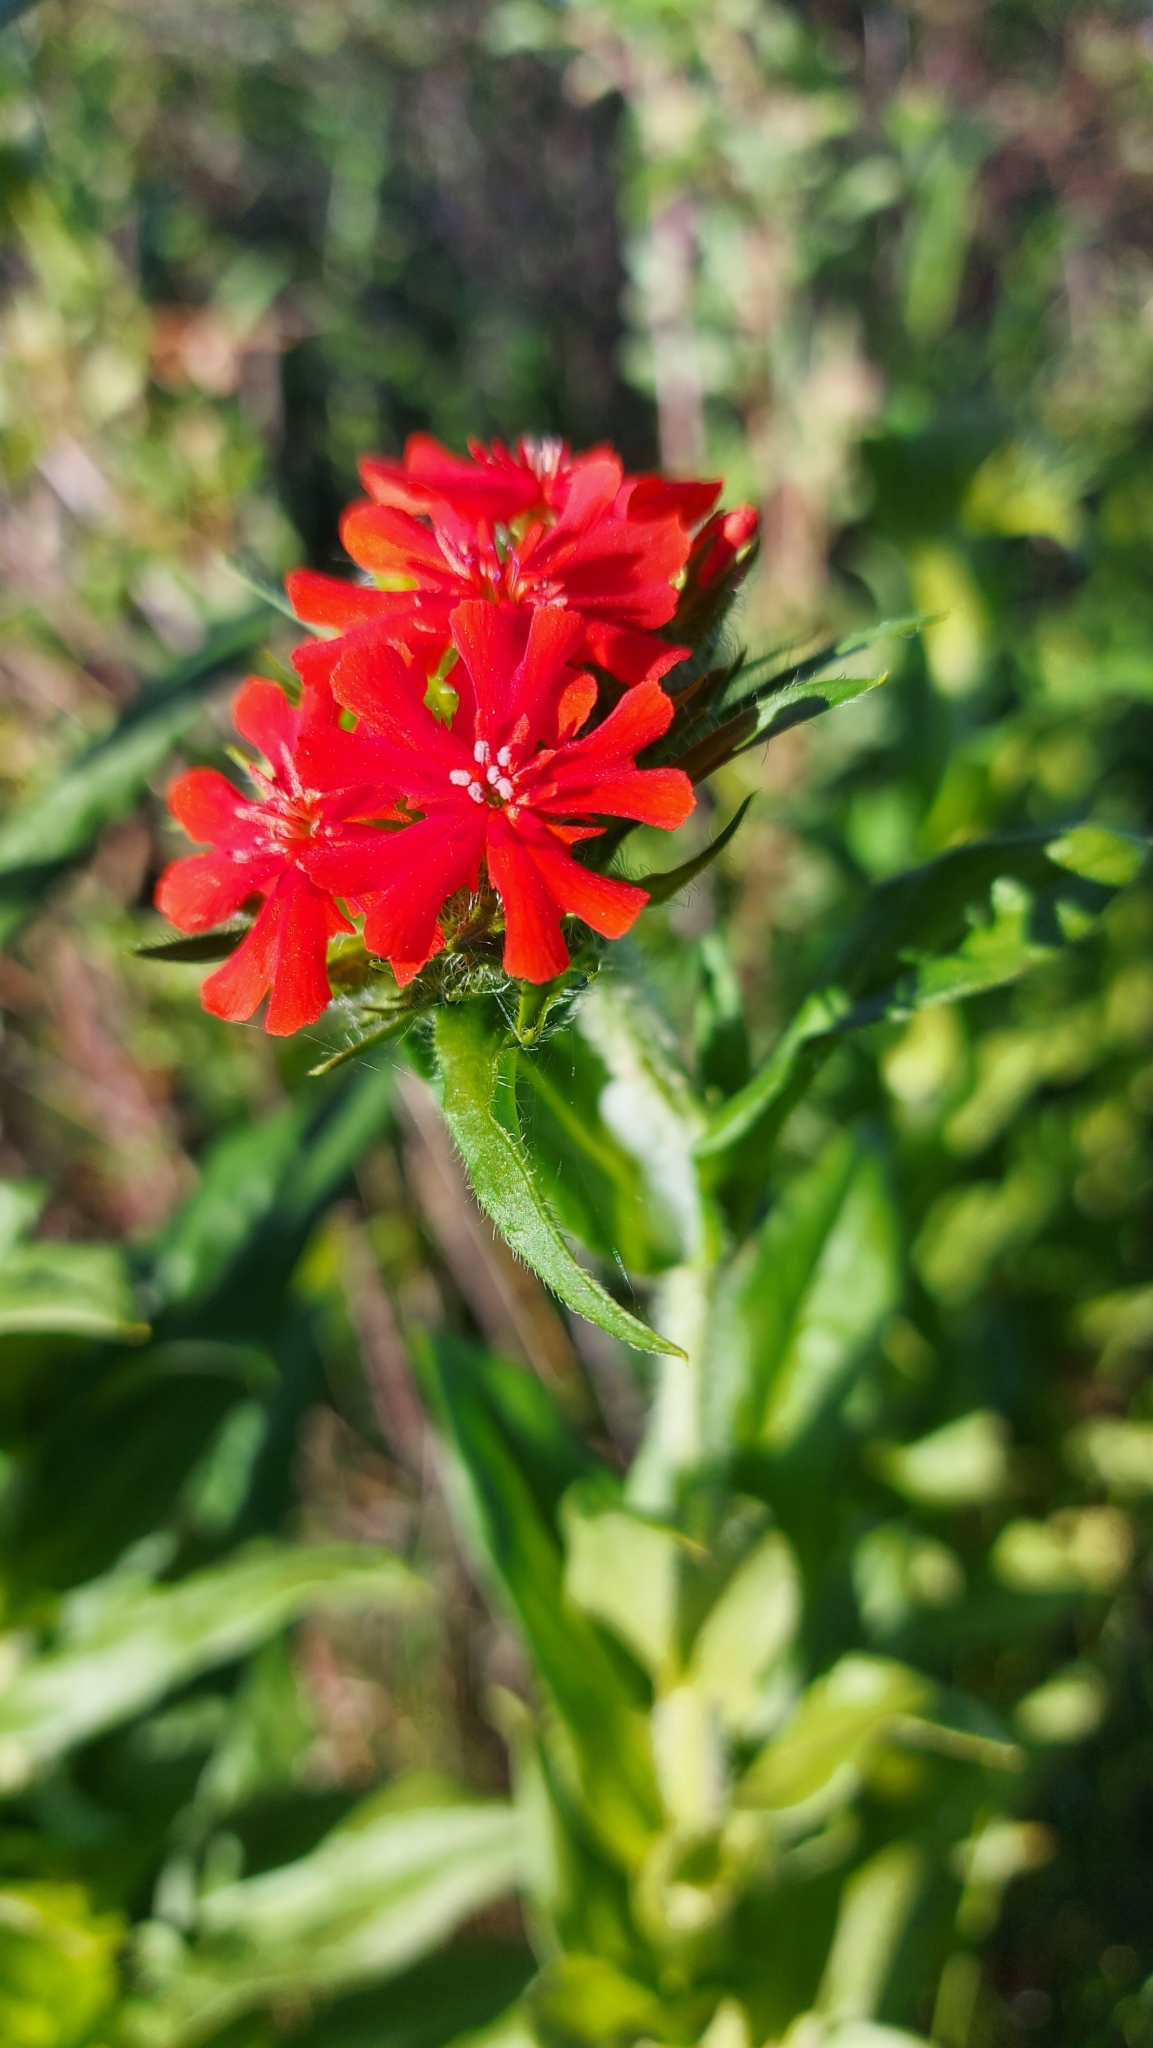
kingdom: Plantae
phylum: Tracheophyta
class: Magnoliopsida
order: Caryophyllales
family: Caryophyllaceae
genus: Silene
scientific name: Silene chalcedonica
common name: Maltese-cross
